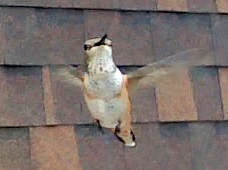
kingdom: Animalia
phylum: Chordata
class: Aves
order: Apodiformes
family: Trochilidae
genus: Selasphorus
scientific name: Selasphorus rufus
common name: Rufous hummingbird
